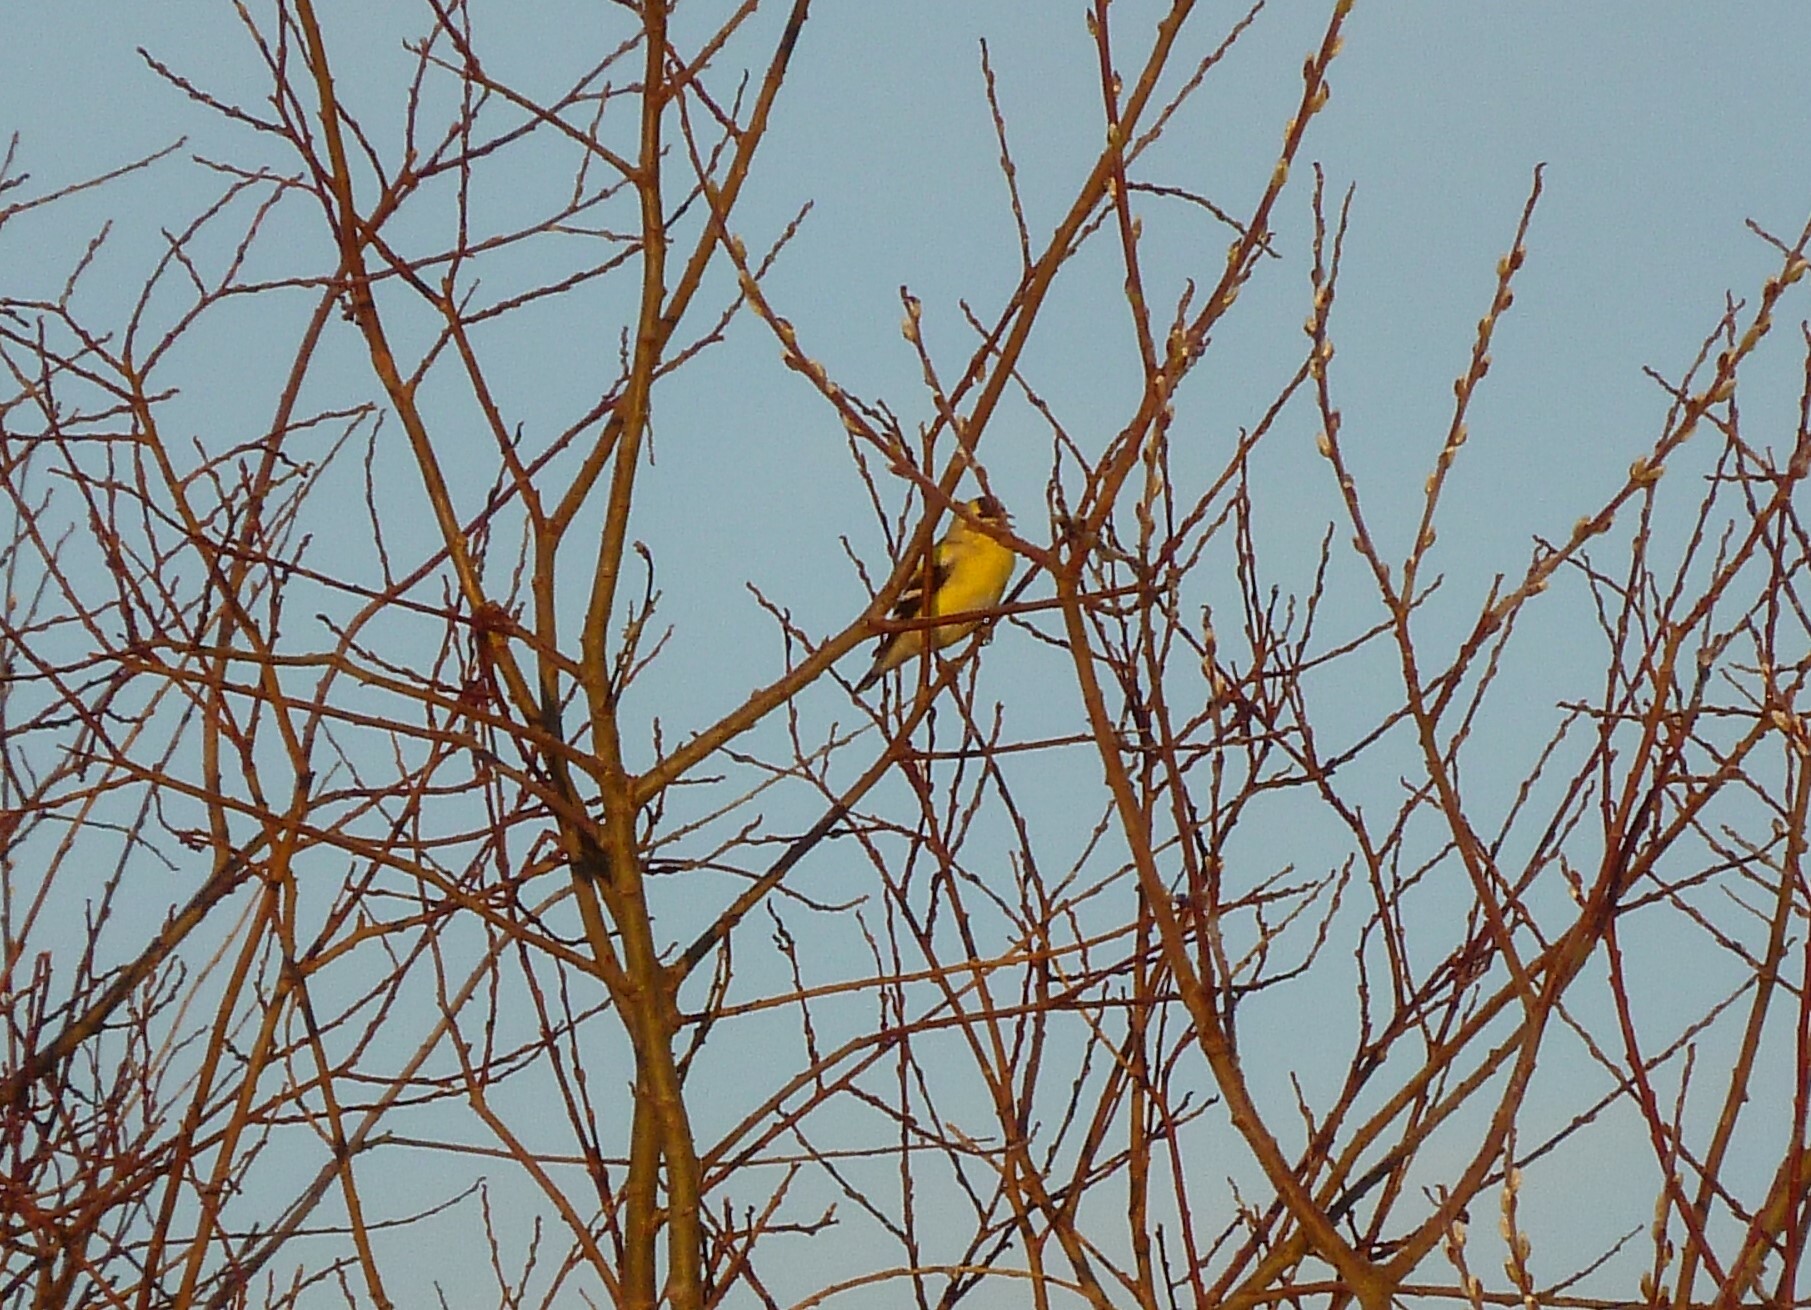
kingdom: Animalia
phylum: Chordata
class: Aves
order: Passeriformes
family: Fringillidae
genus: Spinus
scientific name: Spinus tristis
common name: American goldfinch
